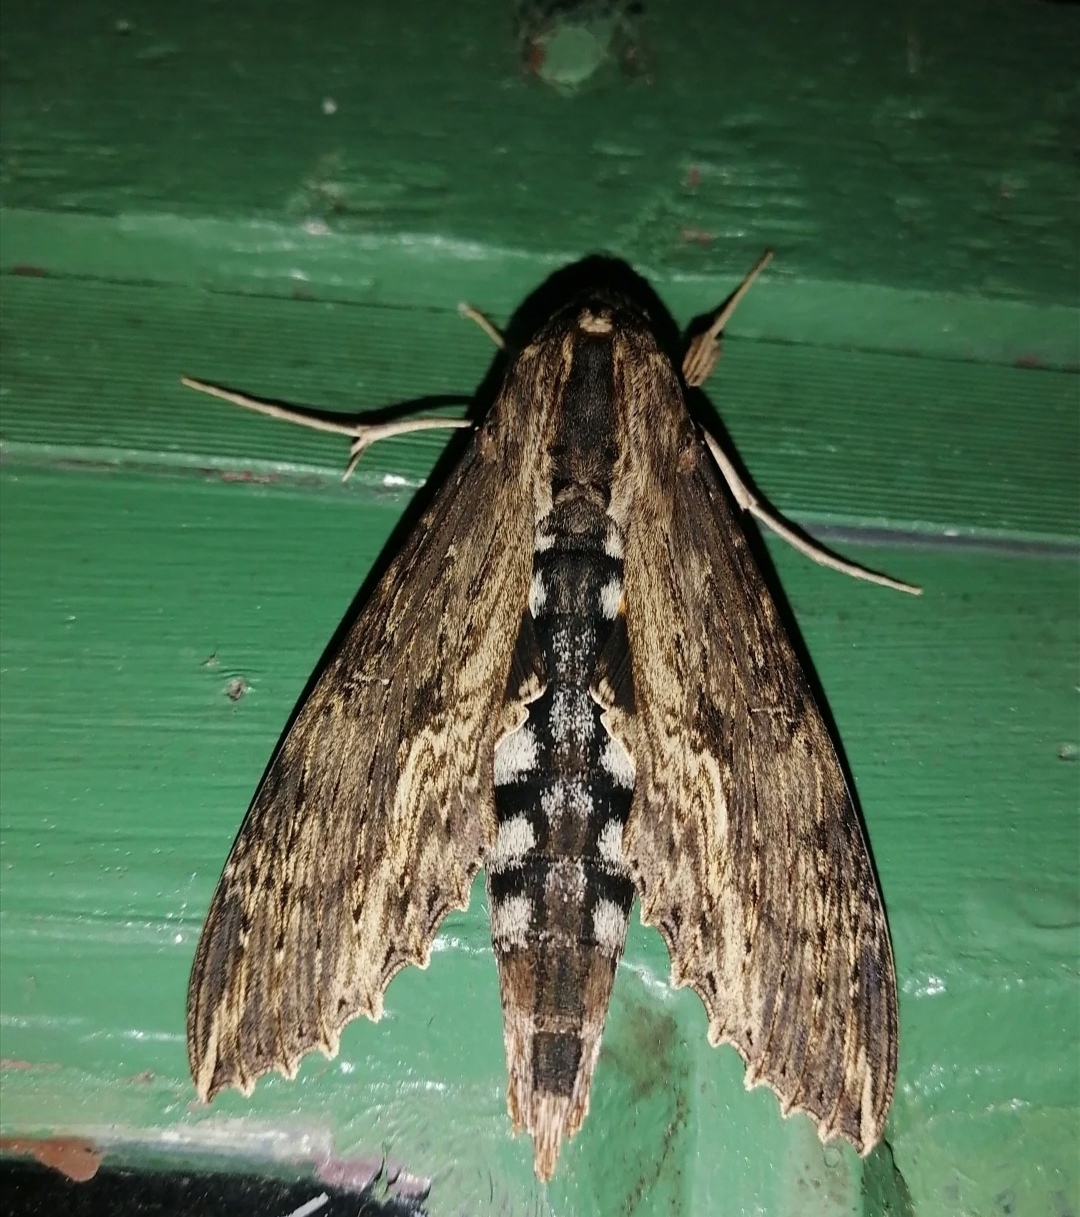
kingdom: Animalia
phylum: Arthropoda
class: Insecta
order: Lepidoptera
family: Sphingidae
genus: Erinnyis
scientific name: Erinnyis alope
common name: Alope sphinx
